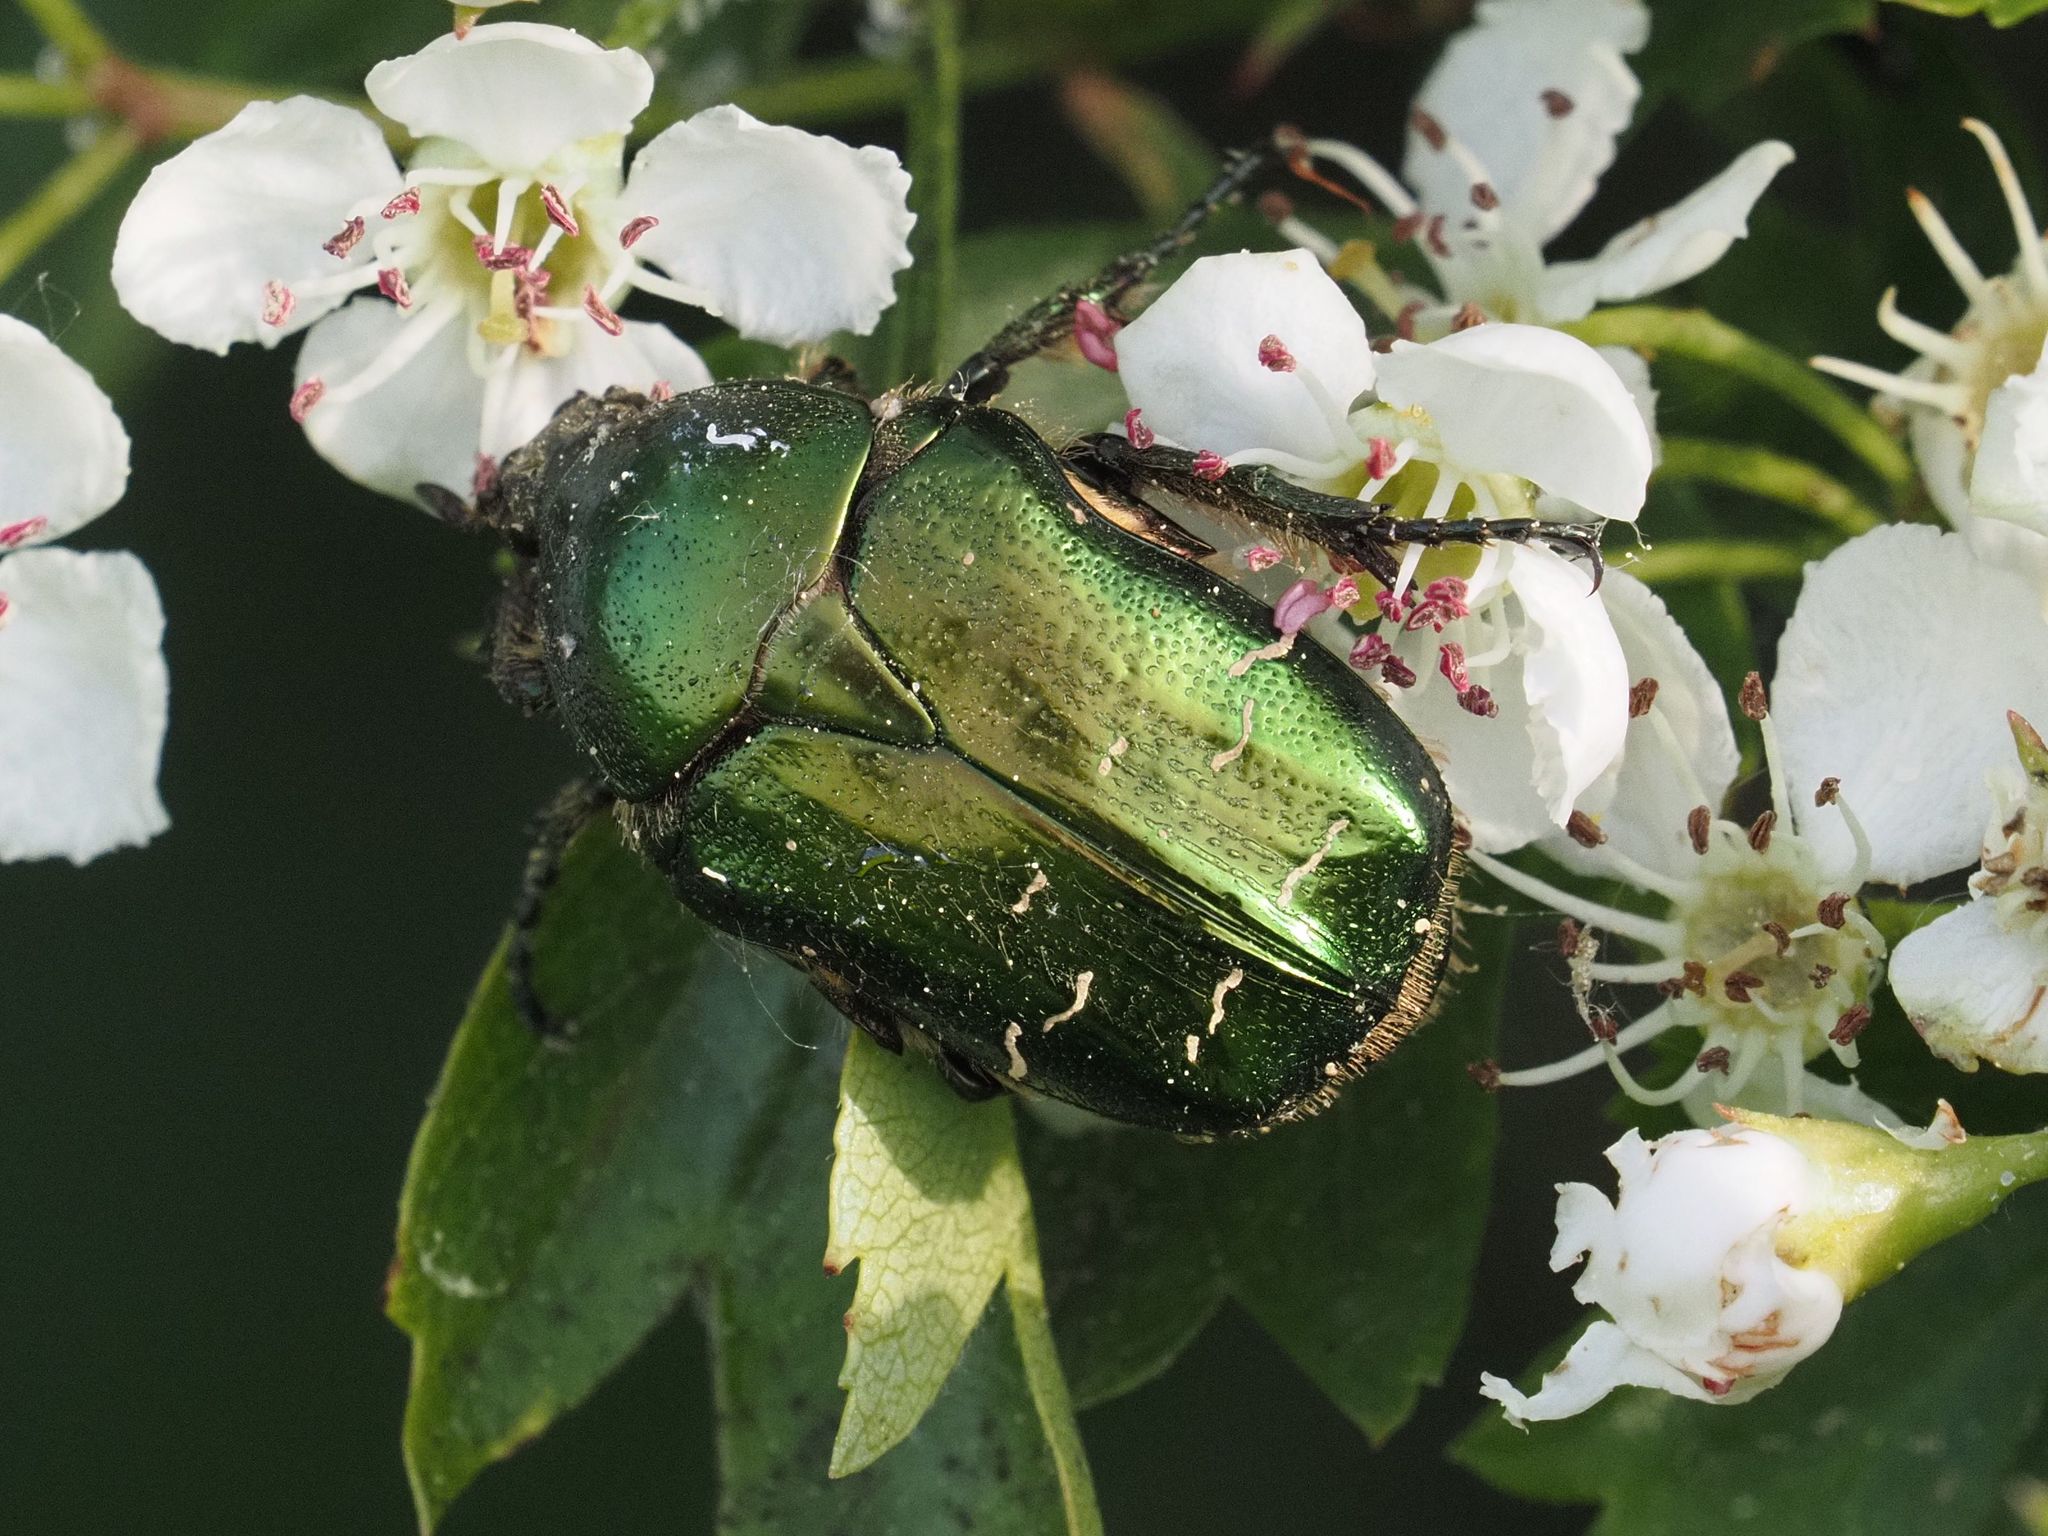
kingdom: Animalia
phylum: Arthropoda
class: Insecta
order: Coleoptera
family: Scarabaeidae
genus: Cetonia
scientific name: Cetonia aurata
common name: Rose chafer
